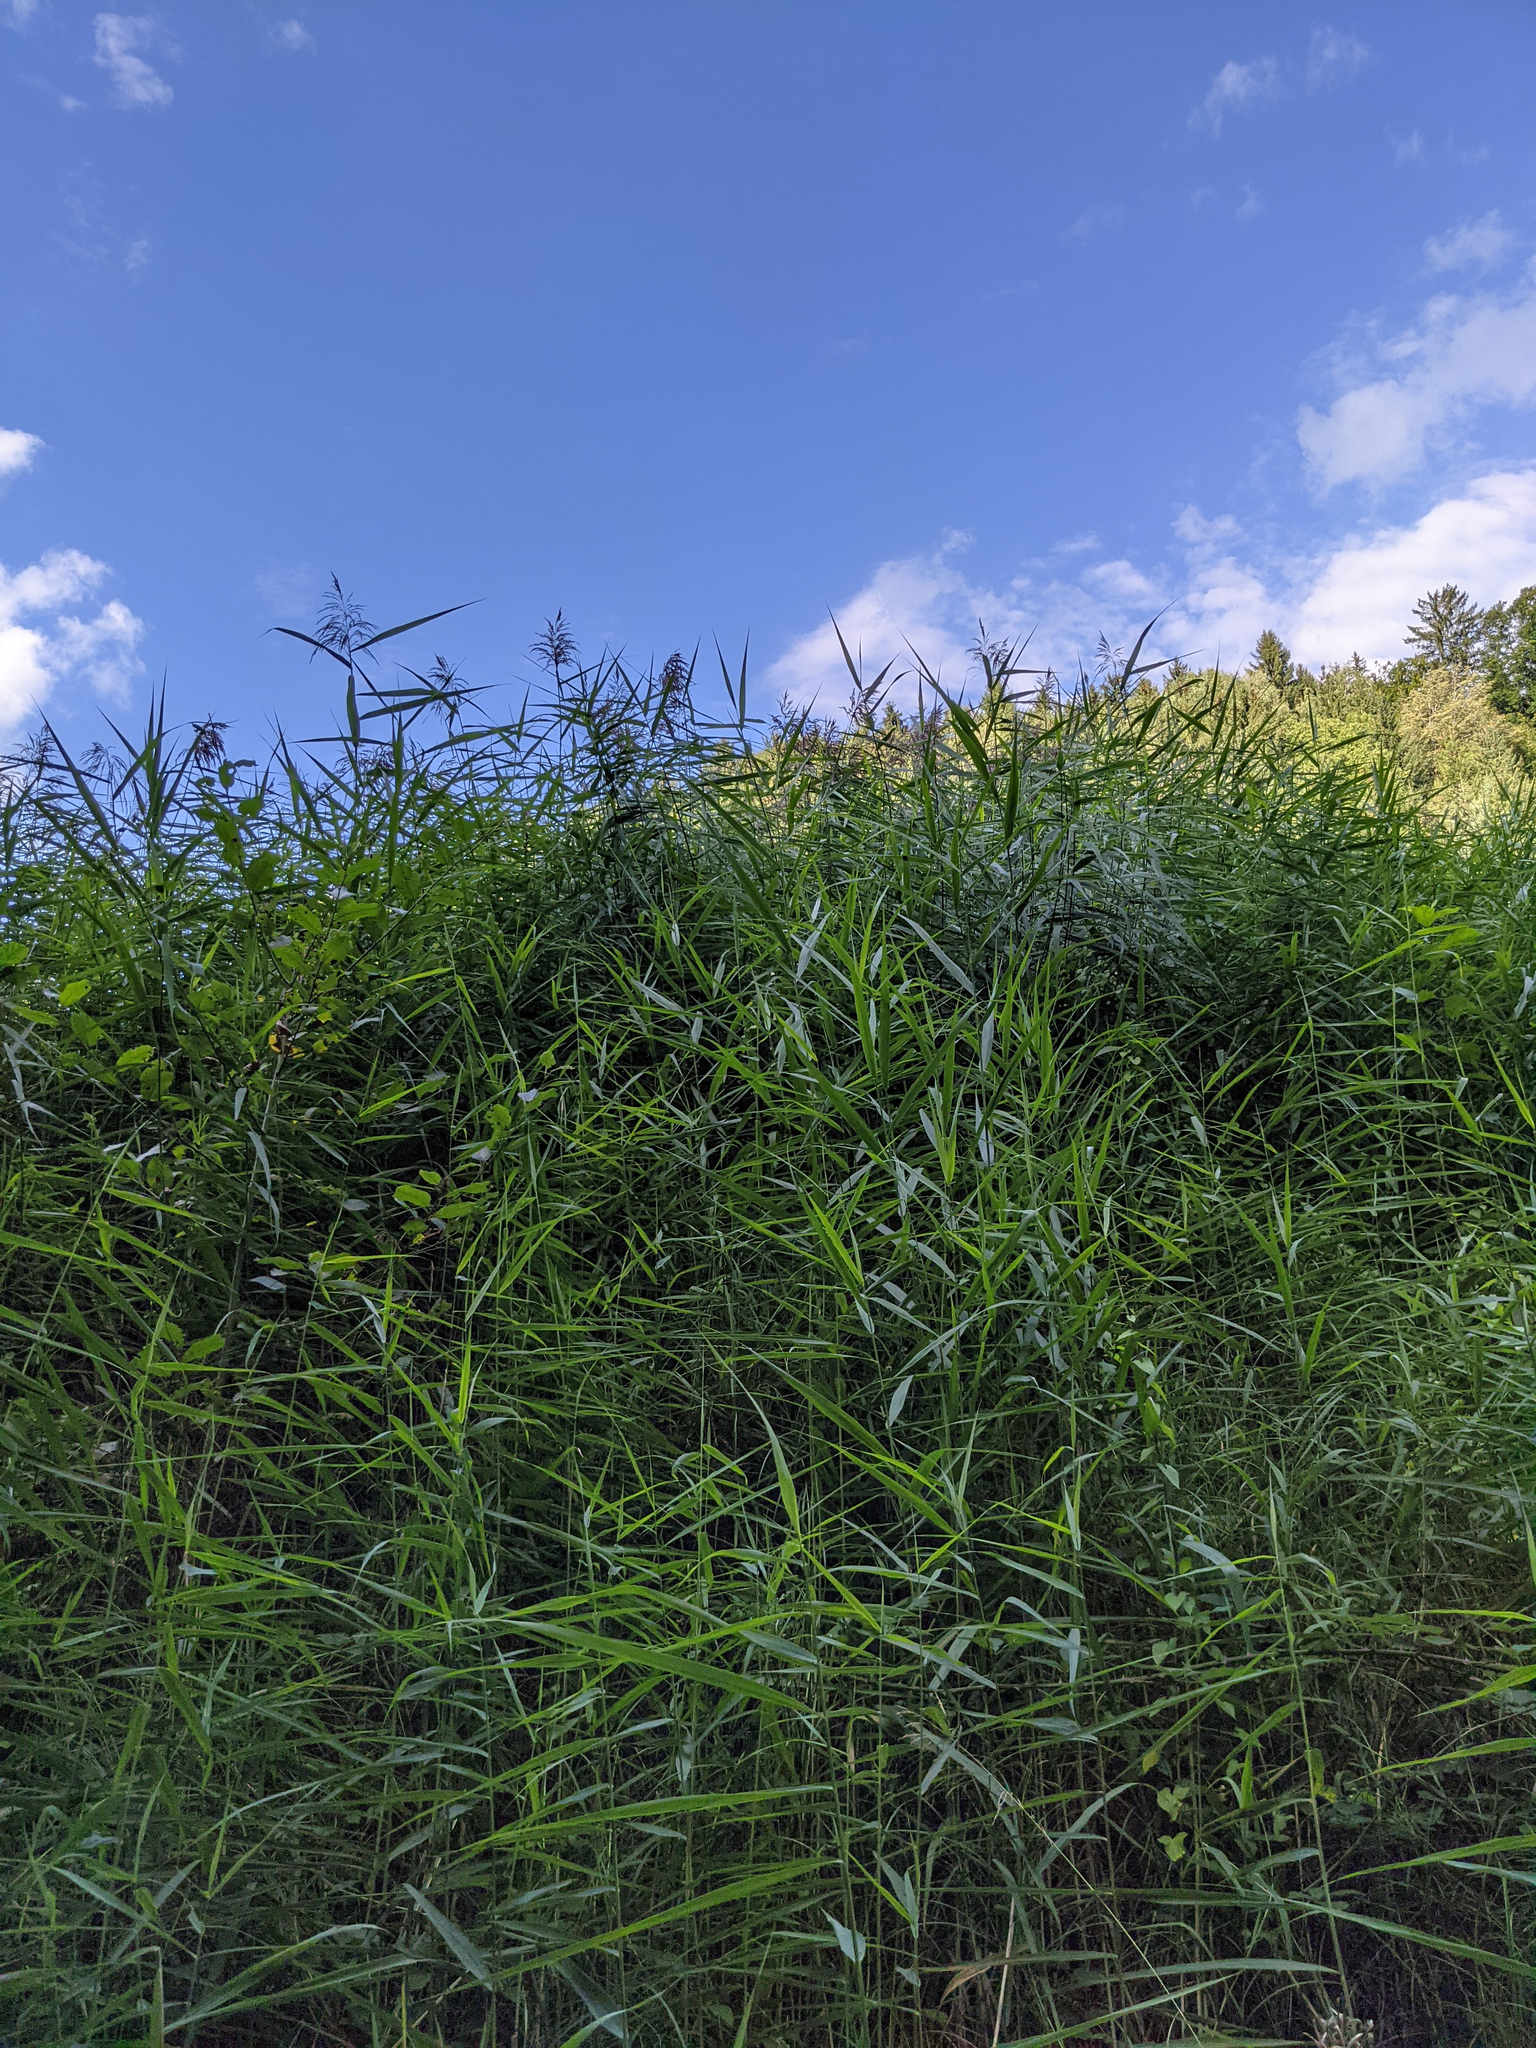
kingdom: Plantae
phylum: Tracheophyta
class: Liliopsida
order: Poales
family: Poaceae
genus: Phragmites
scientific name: Phragmites australis
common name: Common reed
